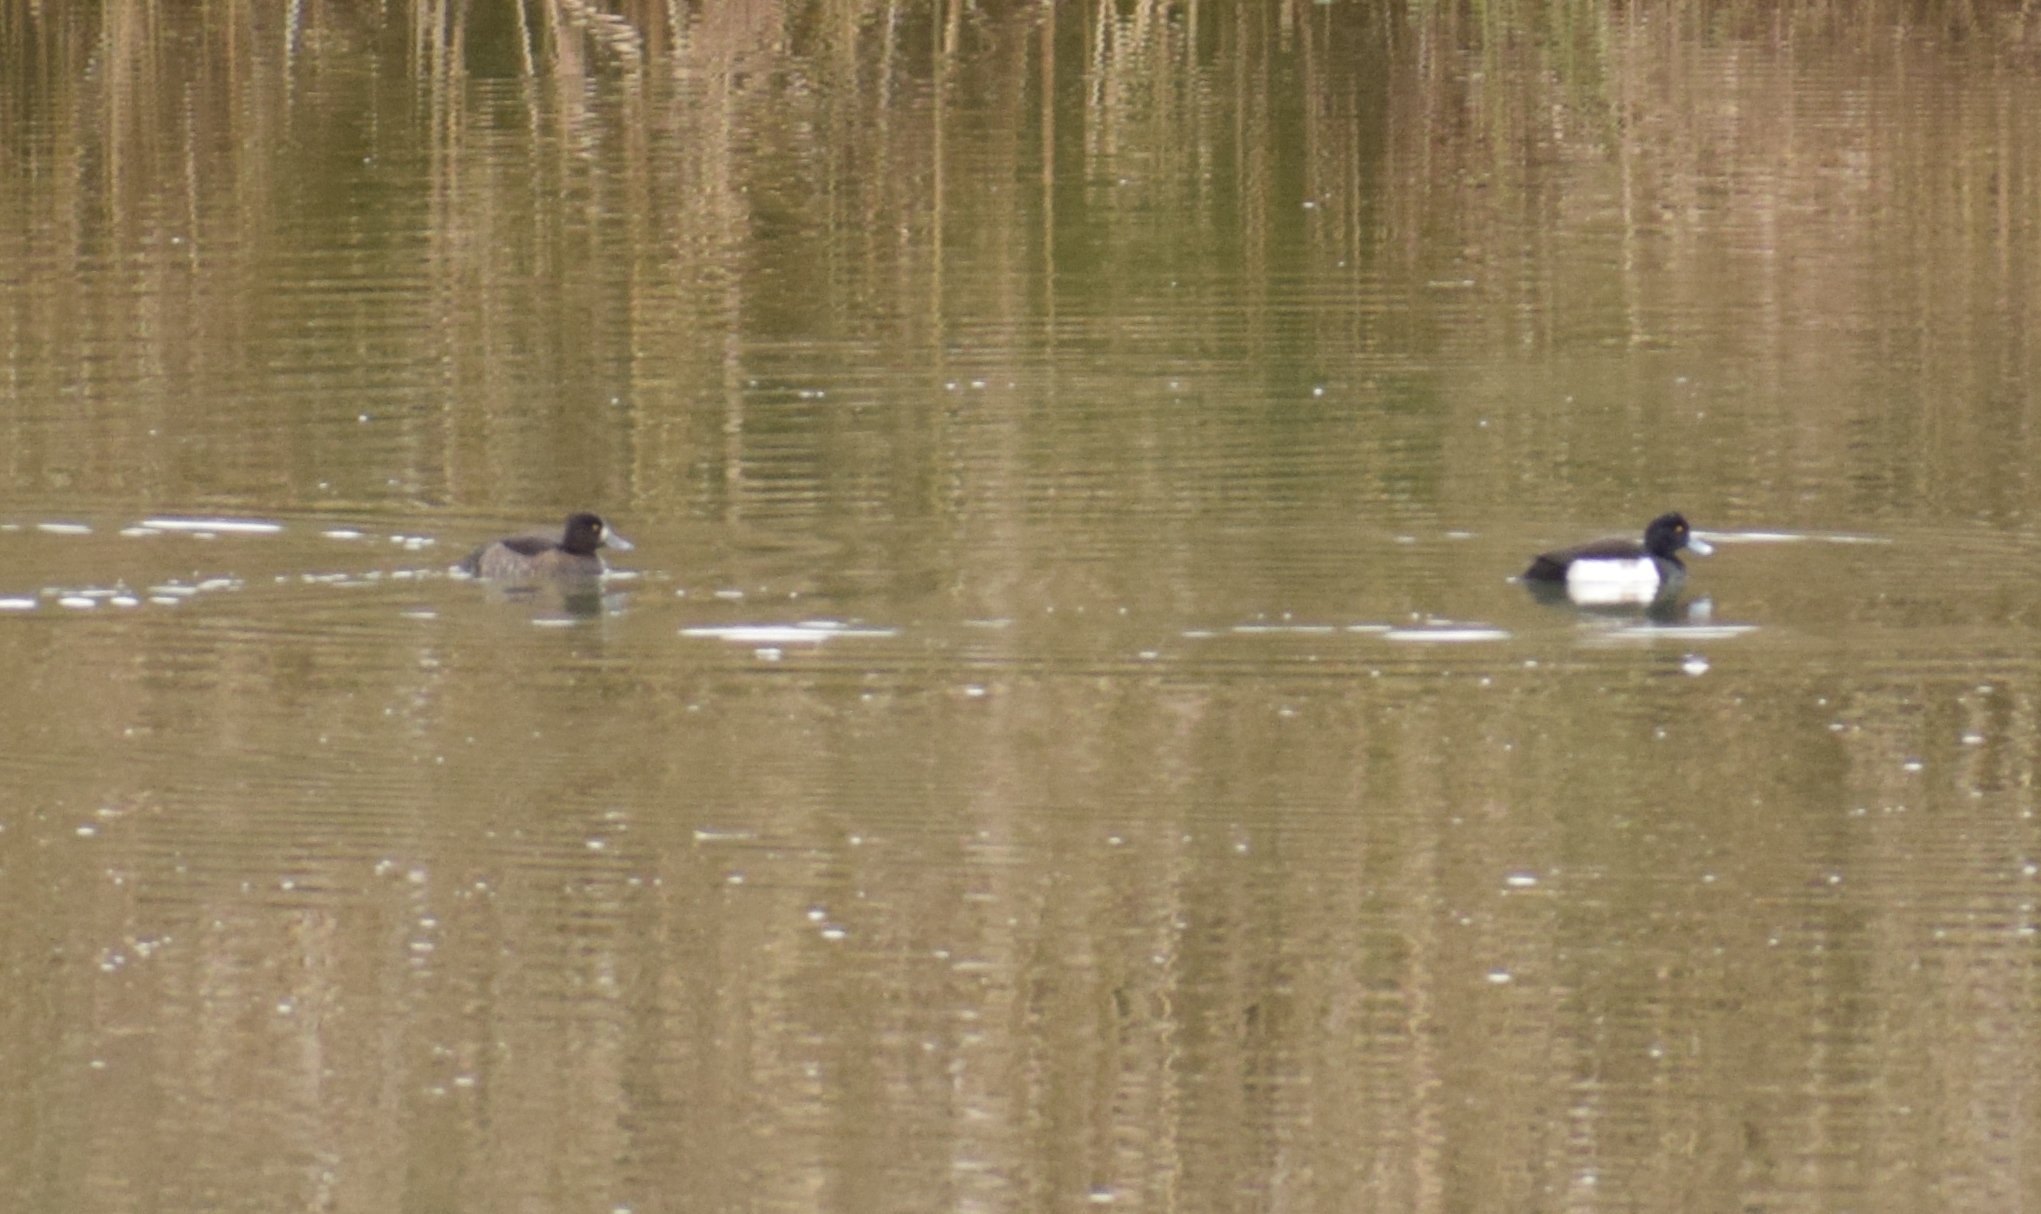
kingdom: Animalia
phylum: Chordata
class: Aves
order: Anseriformes
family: Anatidae
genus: Aythya
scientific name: Aythya fuligula
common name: Tufted duck
